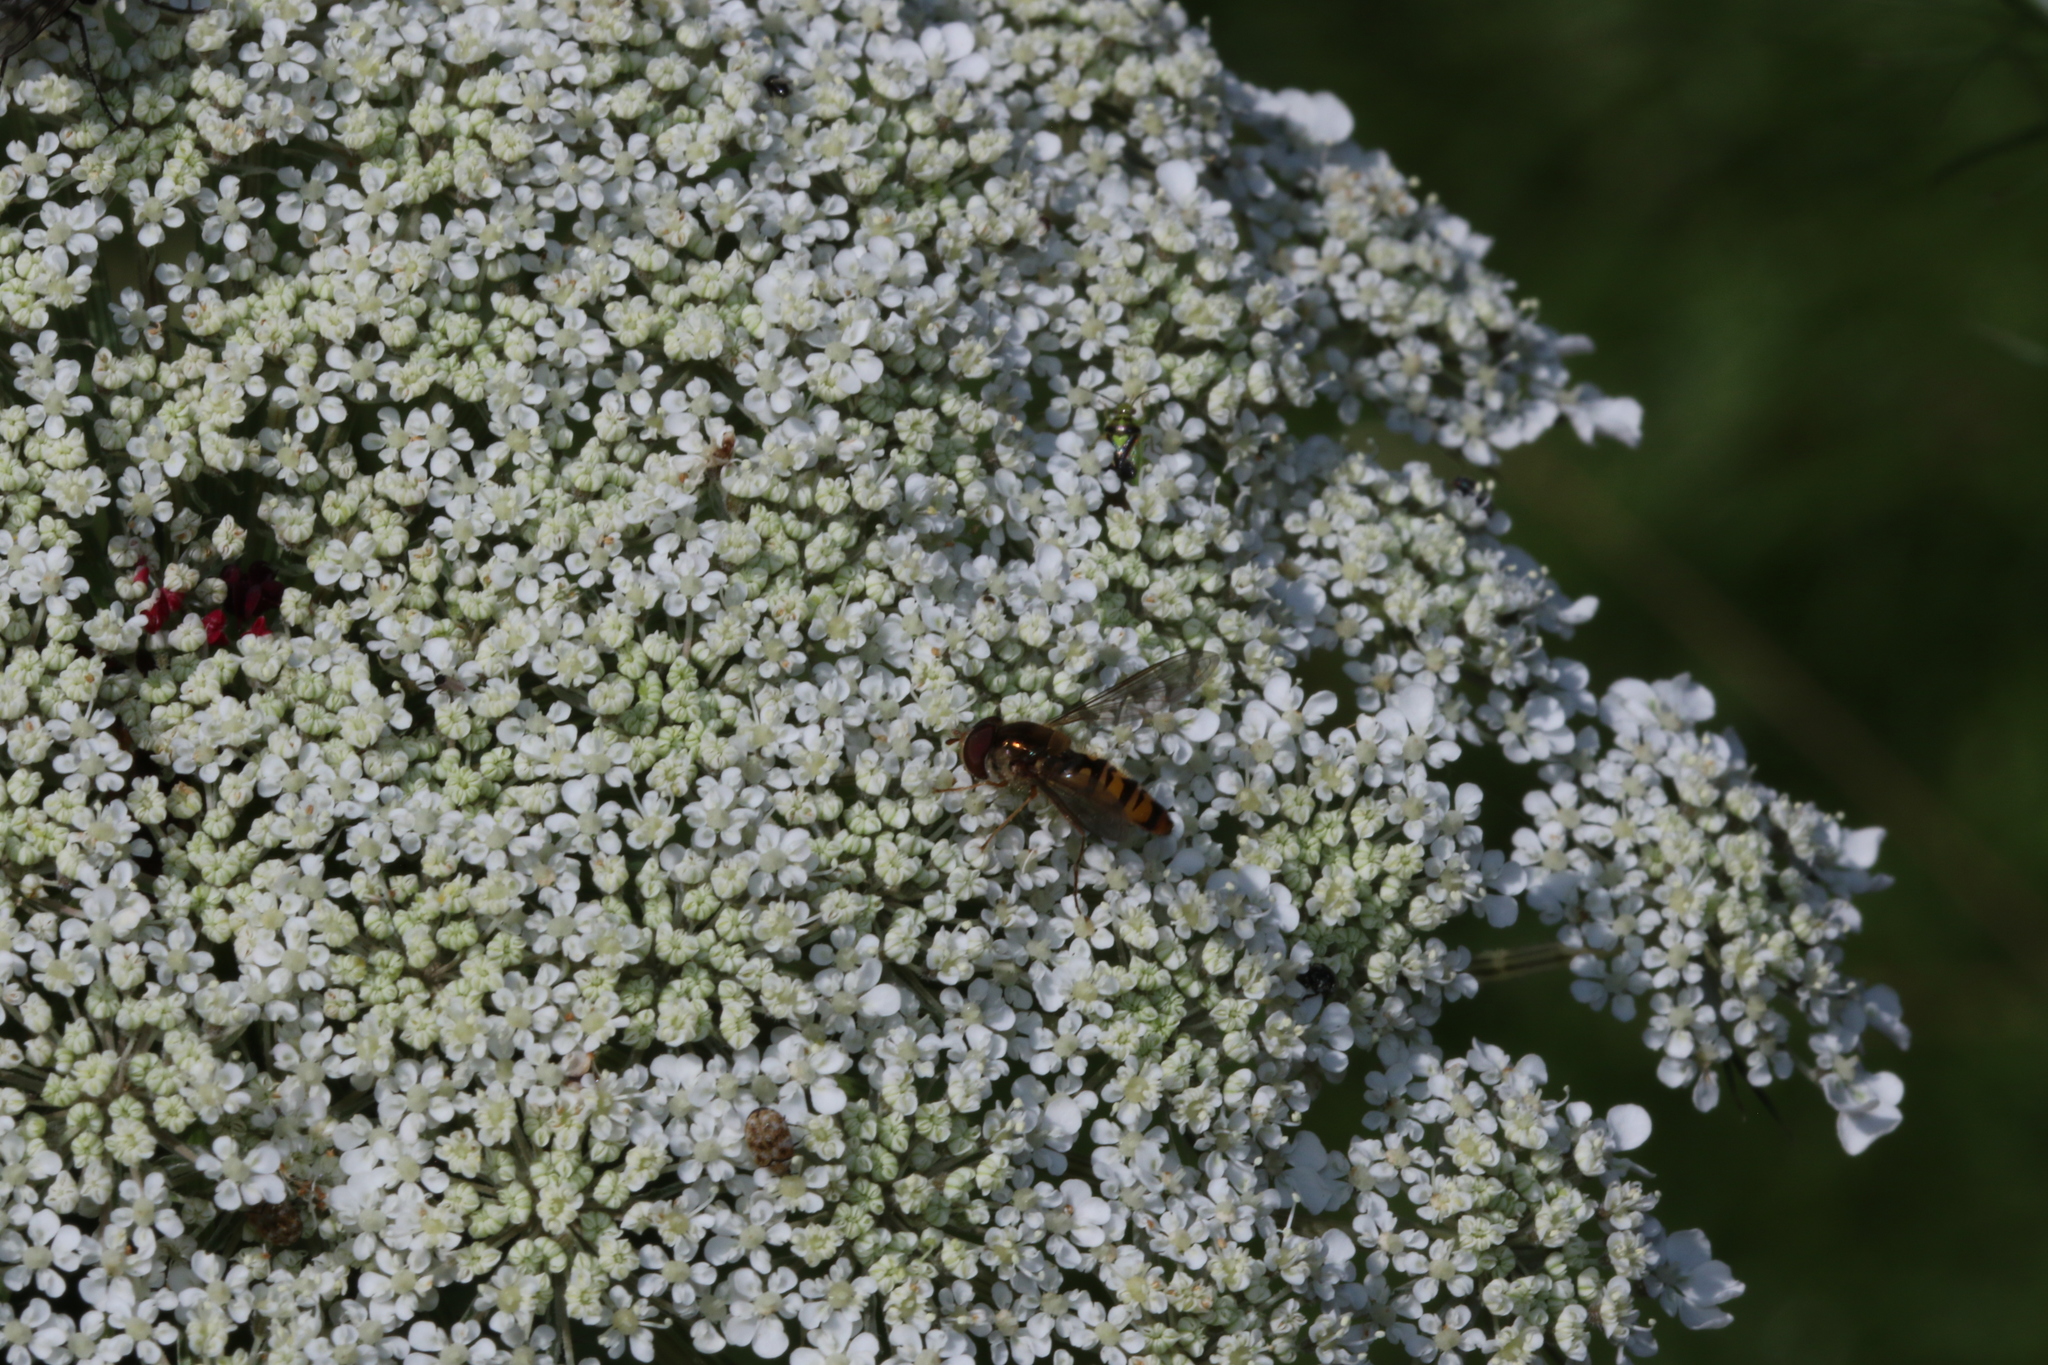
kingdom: Animalia
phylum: Arthropoda
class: Insecta
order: Diptera
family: Syrphidae
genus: Episyrphus
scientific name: Episyrphus balteatus
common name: Marmalade hoverfly
